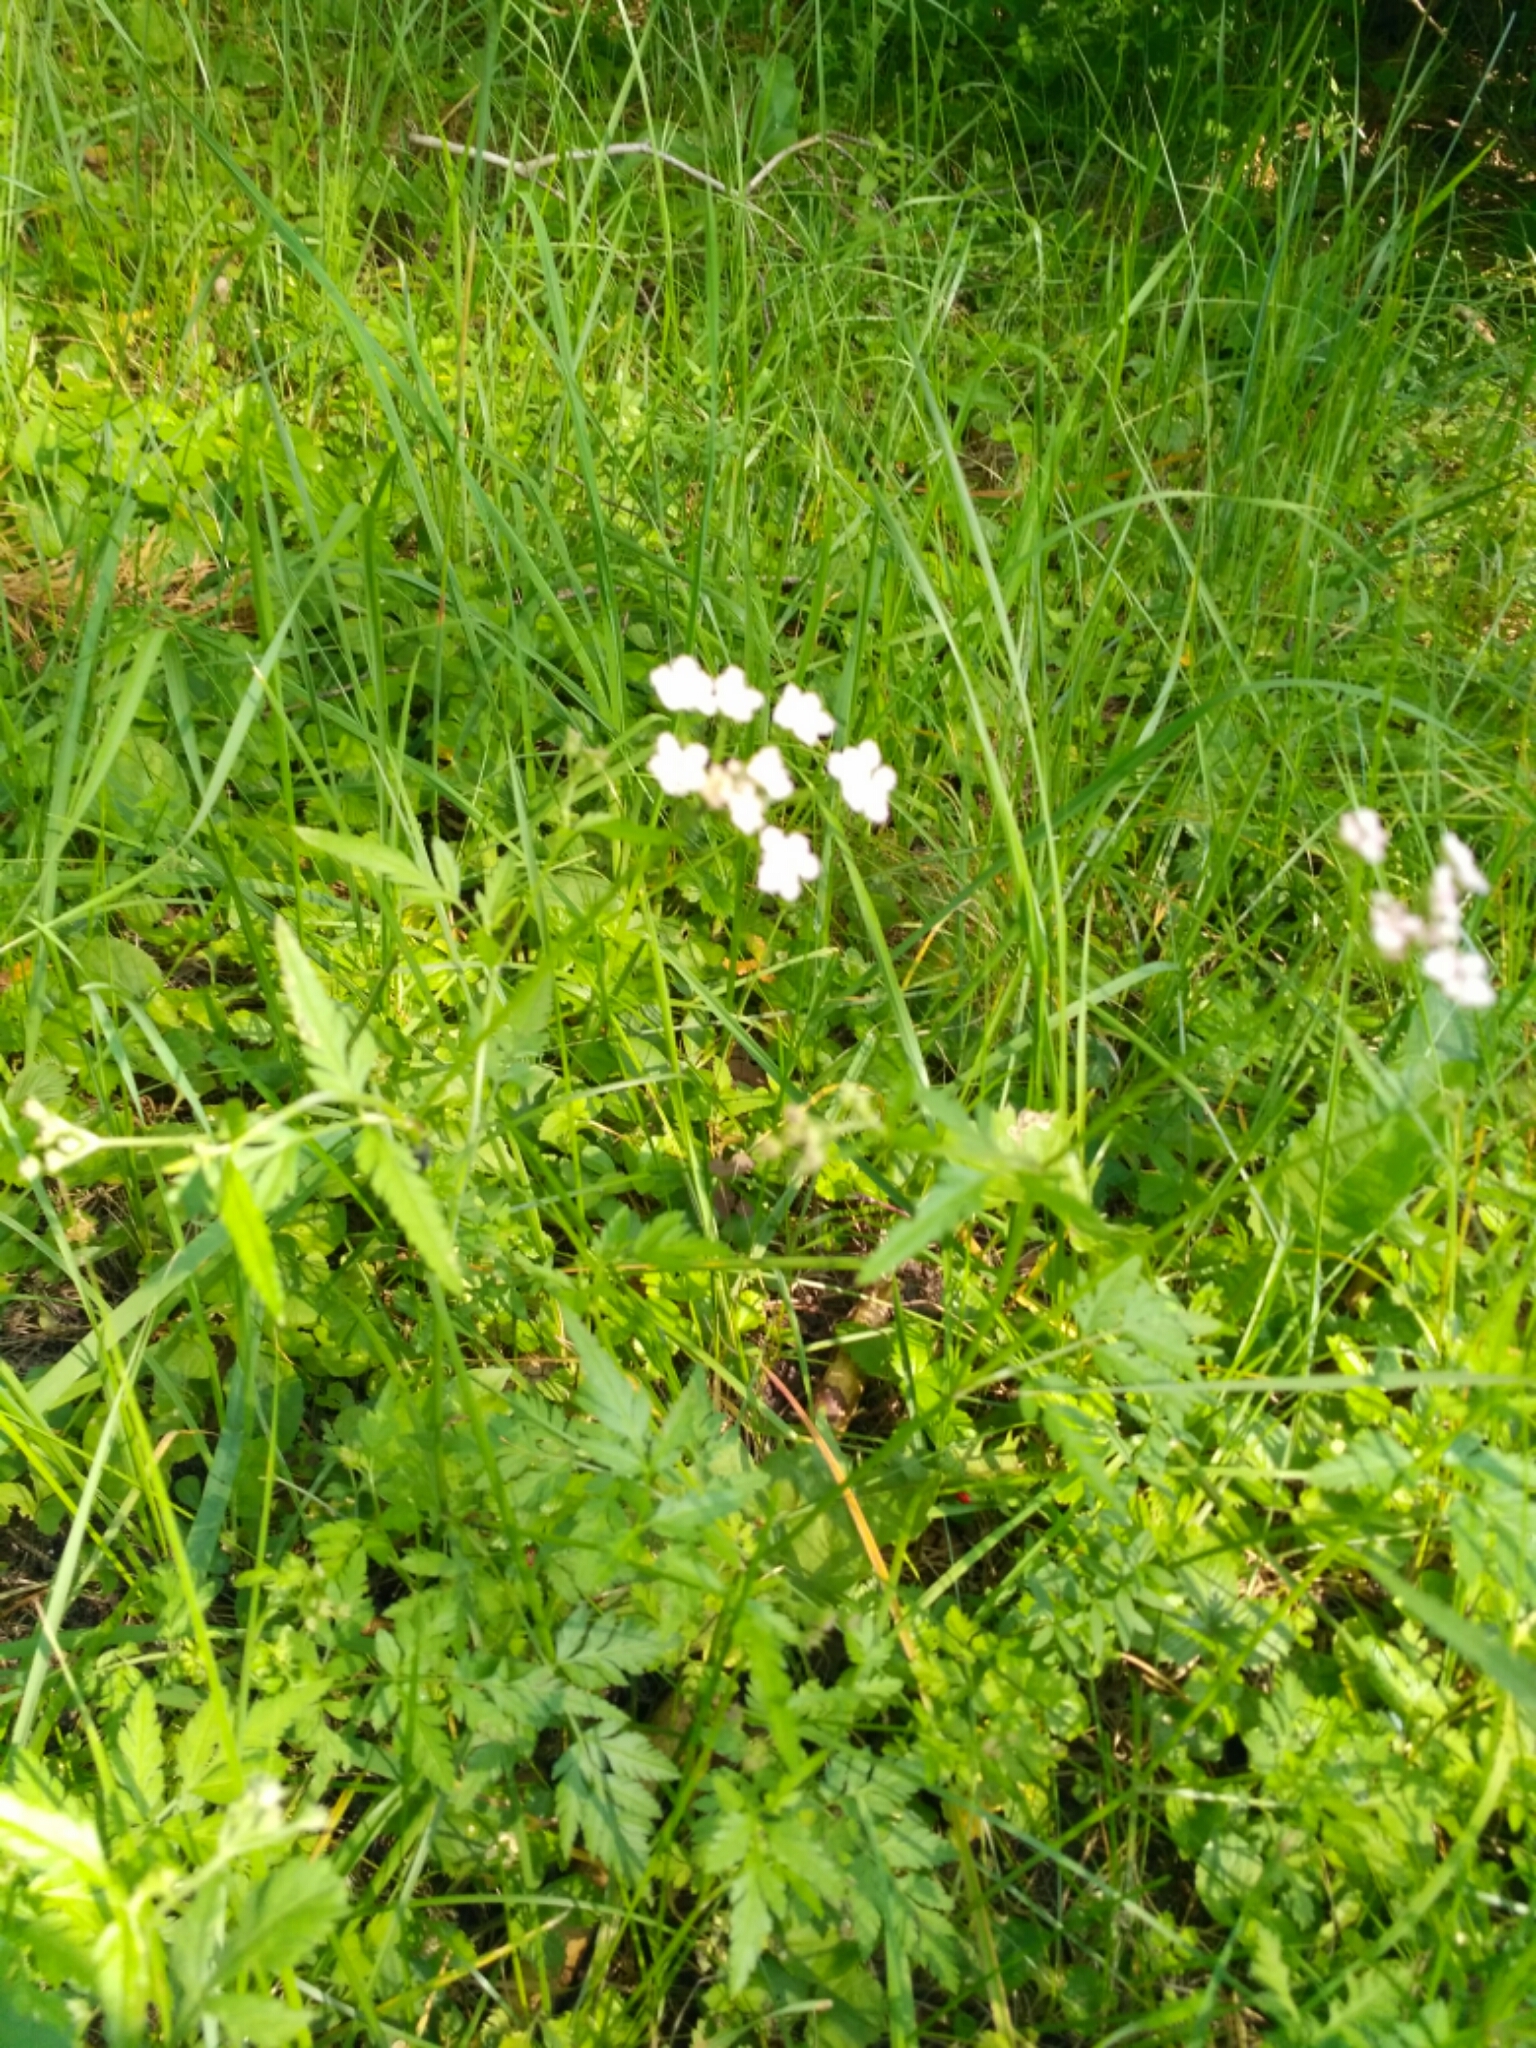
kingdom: Plantae
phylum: Tracheophyta
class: Magnoliopsida
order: Apiales
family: Apiaceae
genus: Torilis
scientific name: Torilis japonica
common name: Upright hedge-parsley
